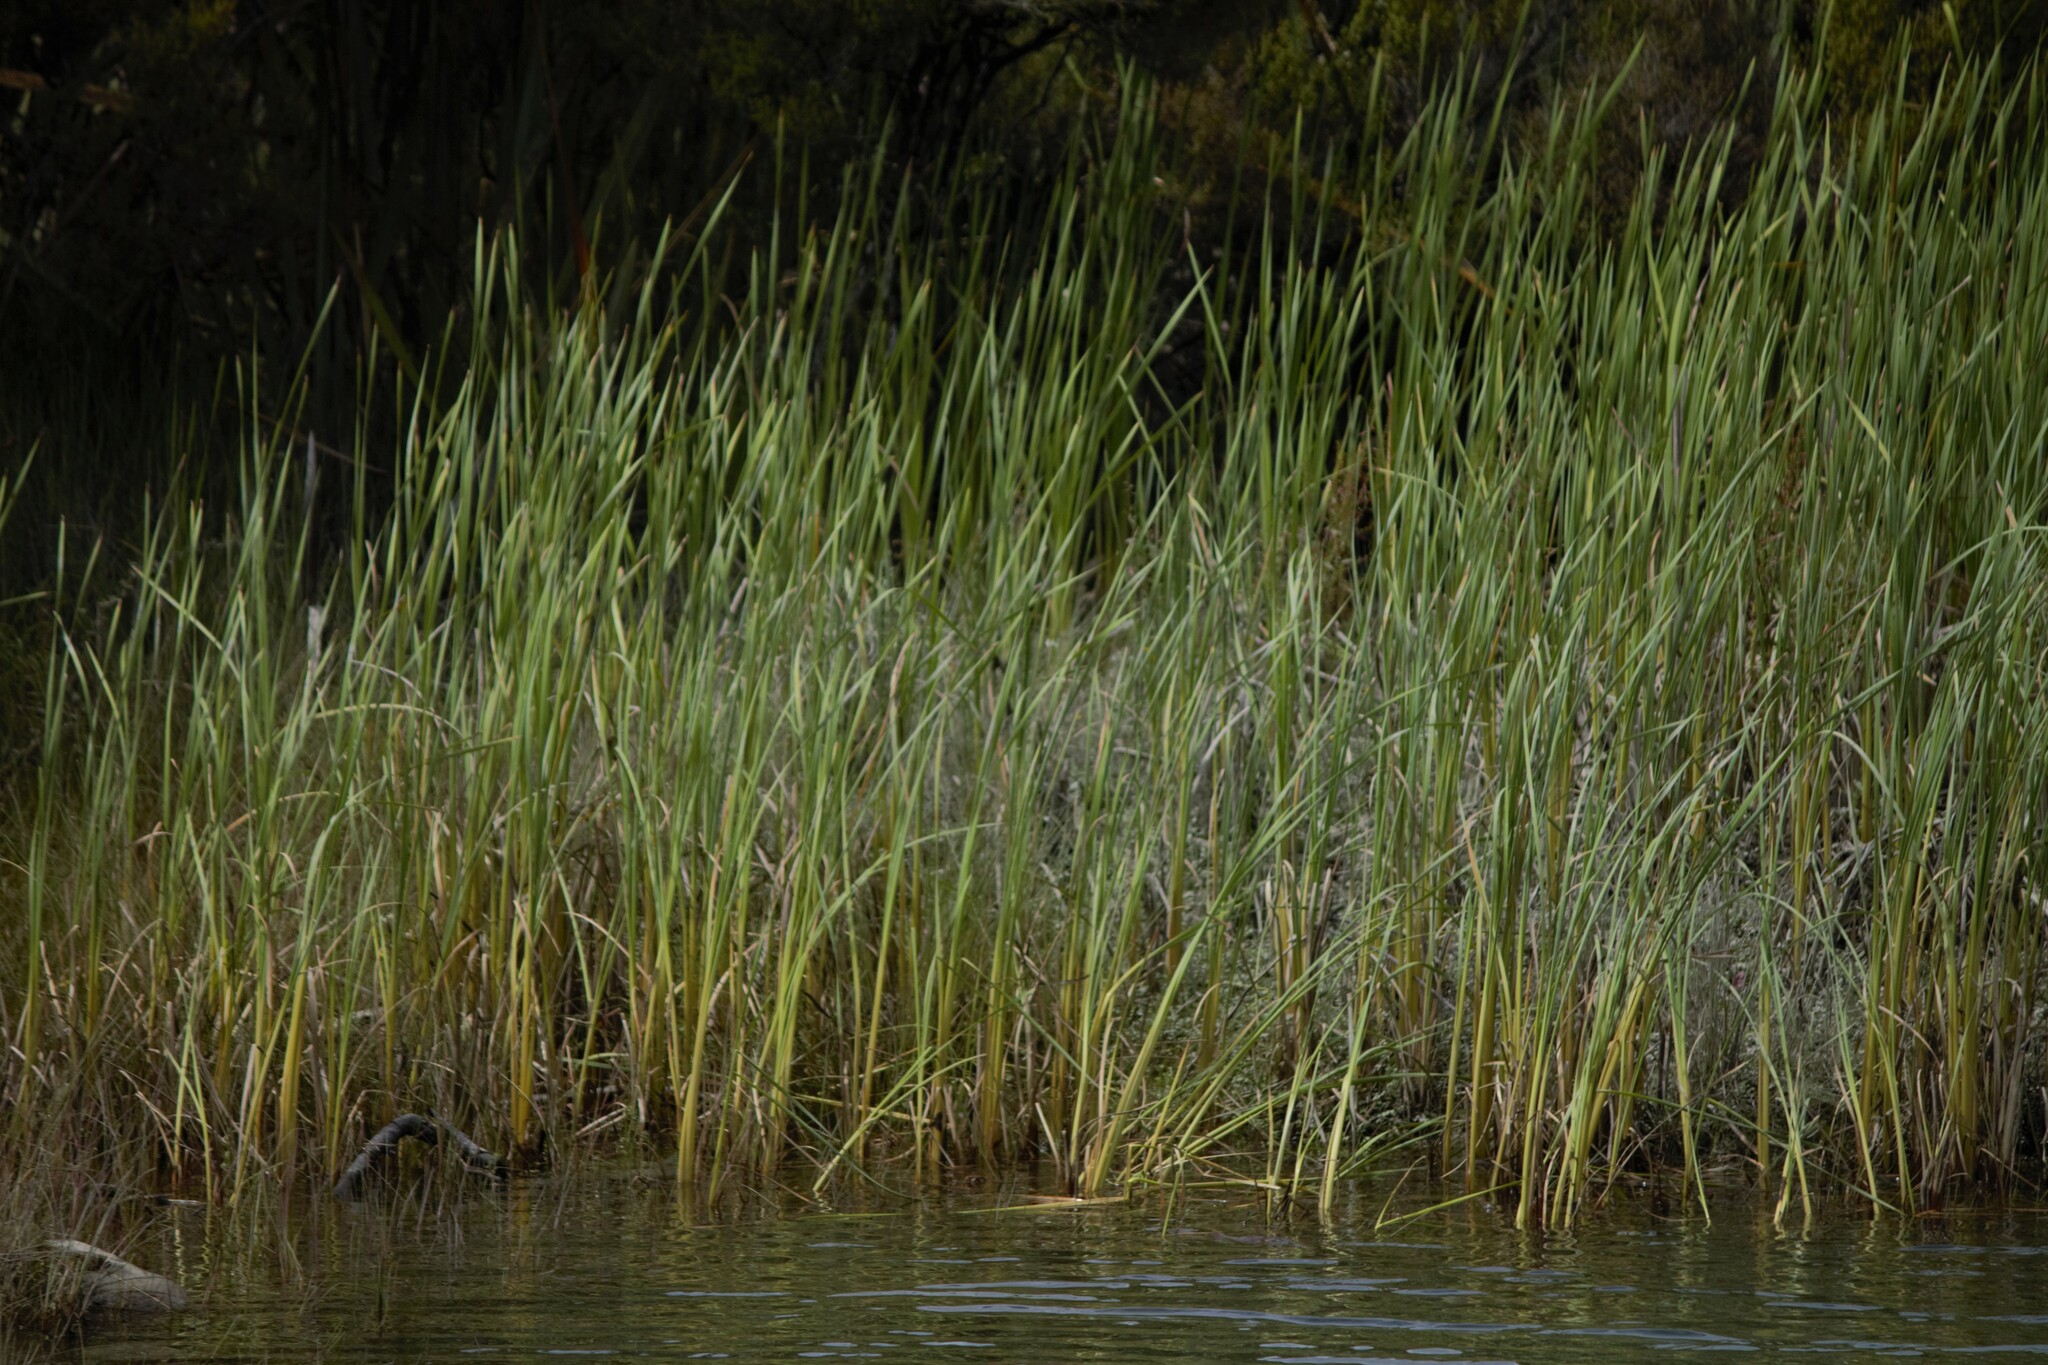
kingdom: Plantae
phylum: Tracheophyta
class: Liliopsida
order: Poales
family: Typhaceae
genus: Typha
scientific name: Typha orientalis
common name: Bullrush
